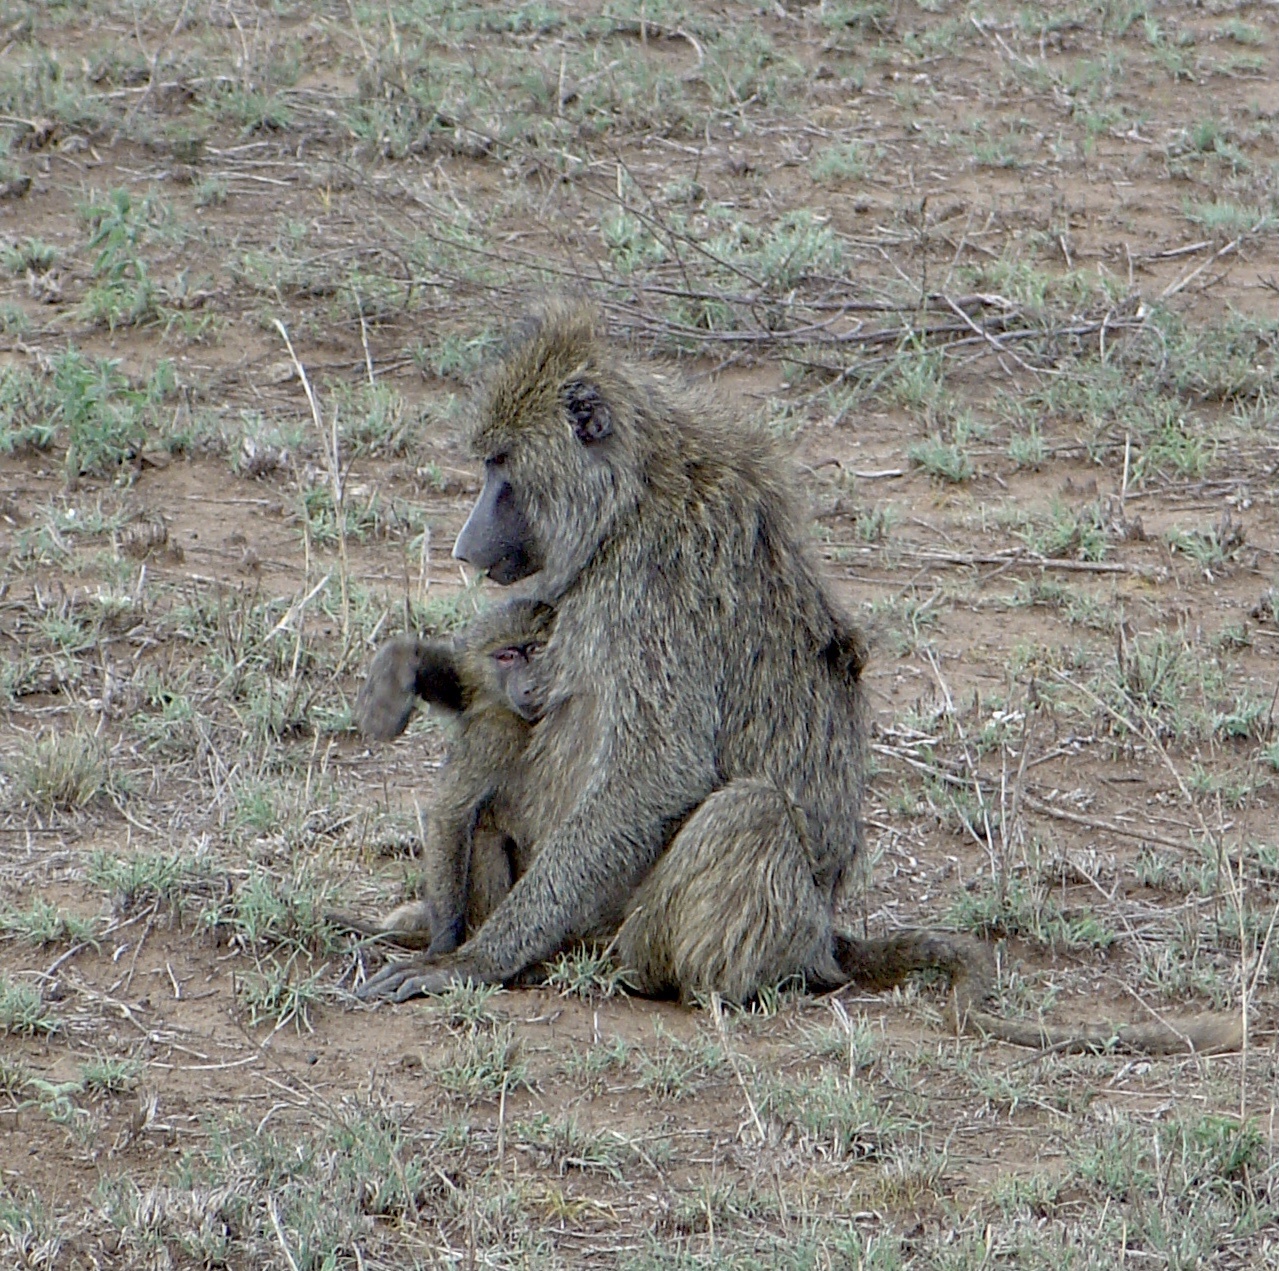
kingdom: Animalia
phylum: Chordata
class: Mammalia
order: Primates
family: Cercopithecidae
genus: Papio
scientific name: Papio anubis
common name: Olive baboon
